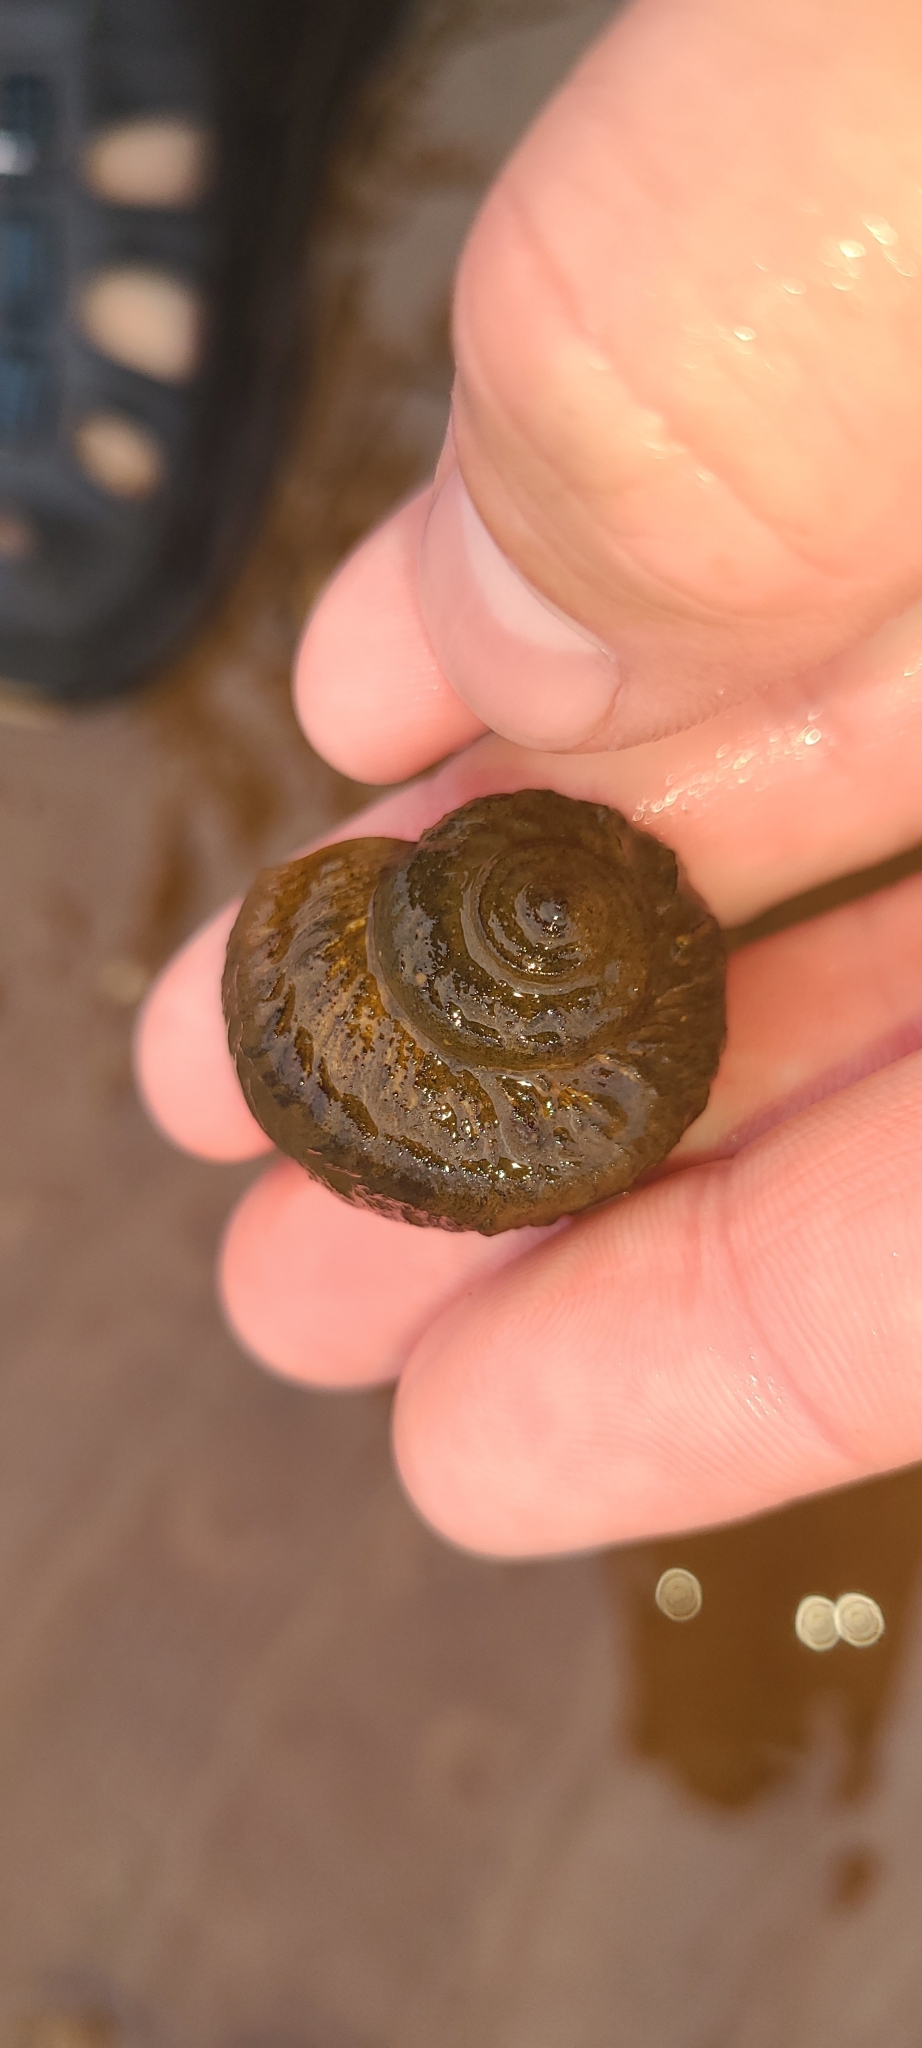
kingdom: Animalia
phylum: Mollusca
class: Gastropoda
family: Amphibolidae
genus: Amphibola
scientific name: Amphibola crenata
